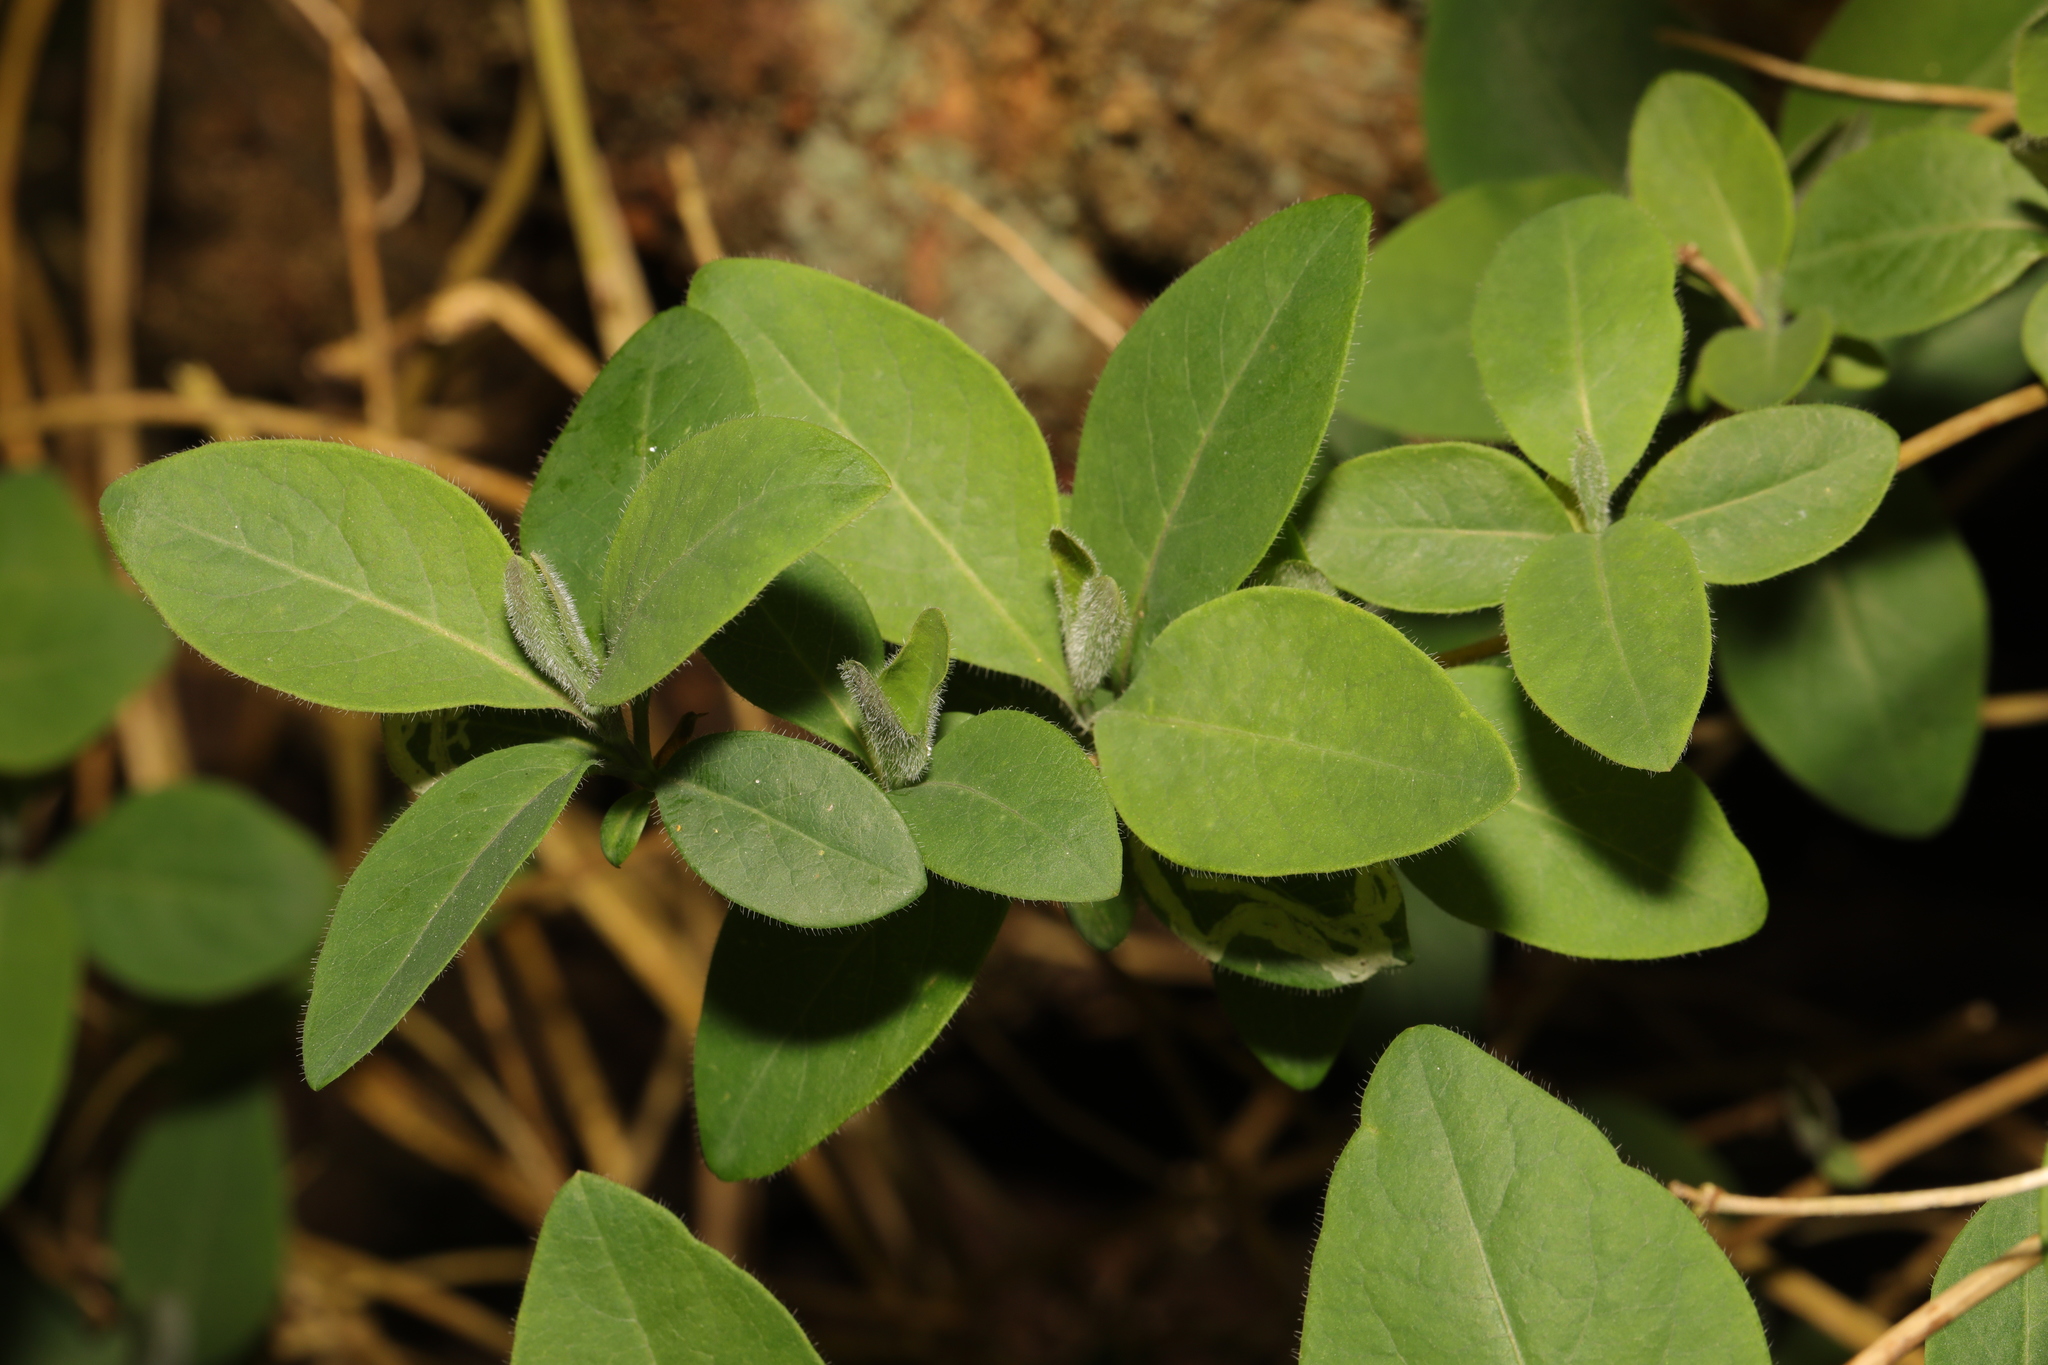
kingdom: Plantae
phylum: Tracheophyta
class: Magnoliopsida
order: Dipsacales
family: Caprifoliaceae
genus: Lonicera
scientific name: Lonicera periclymenum
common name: European honeysuckle
